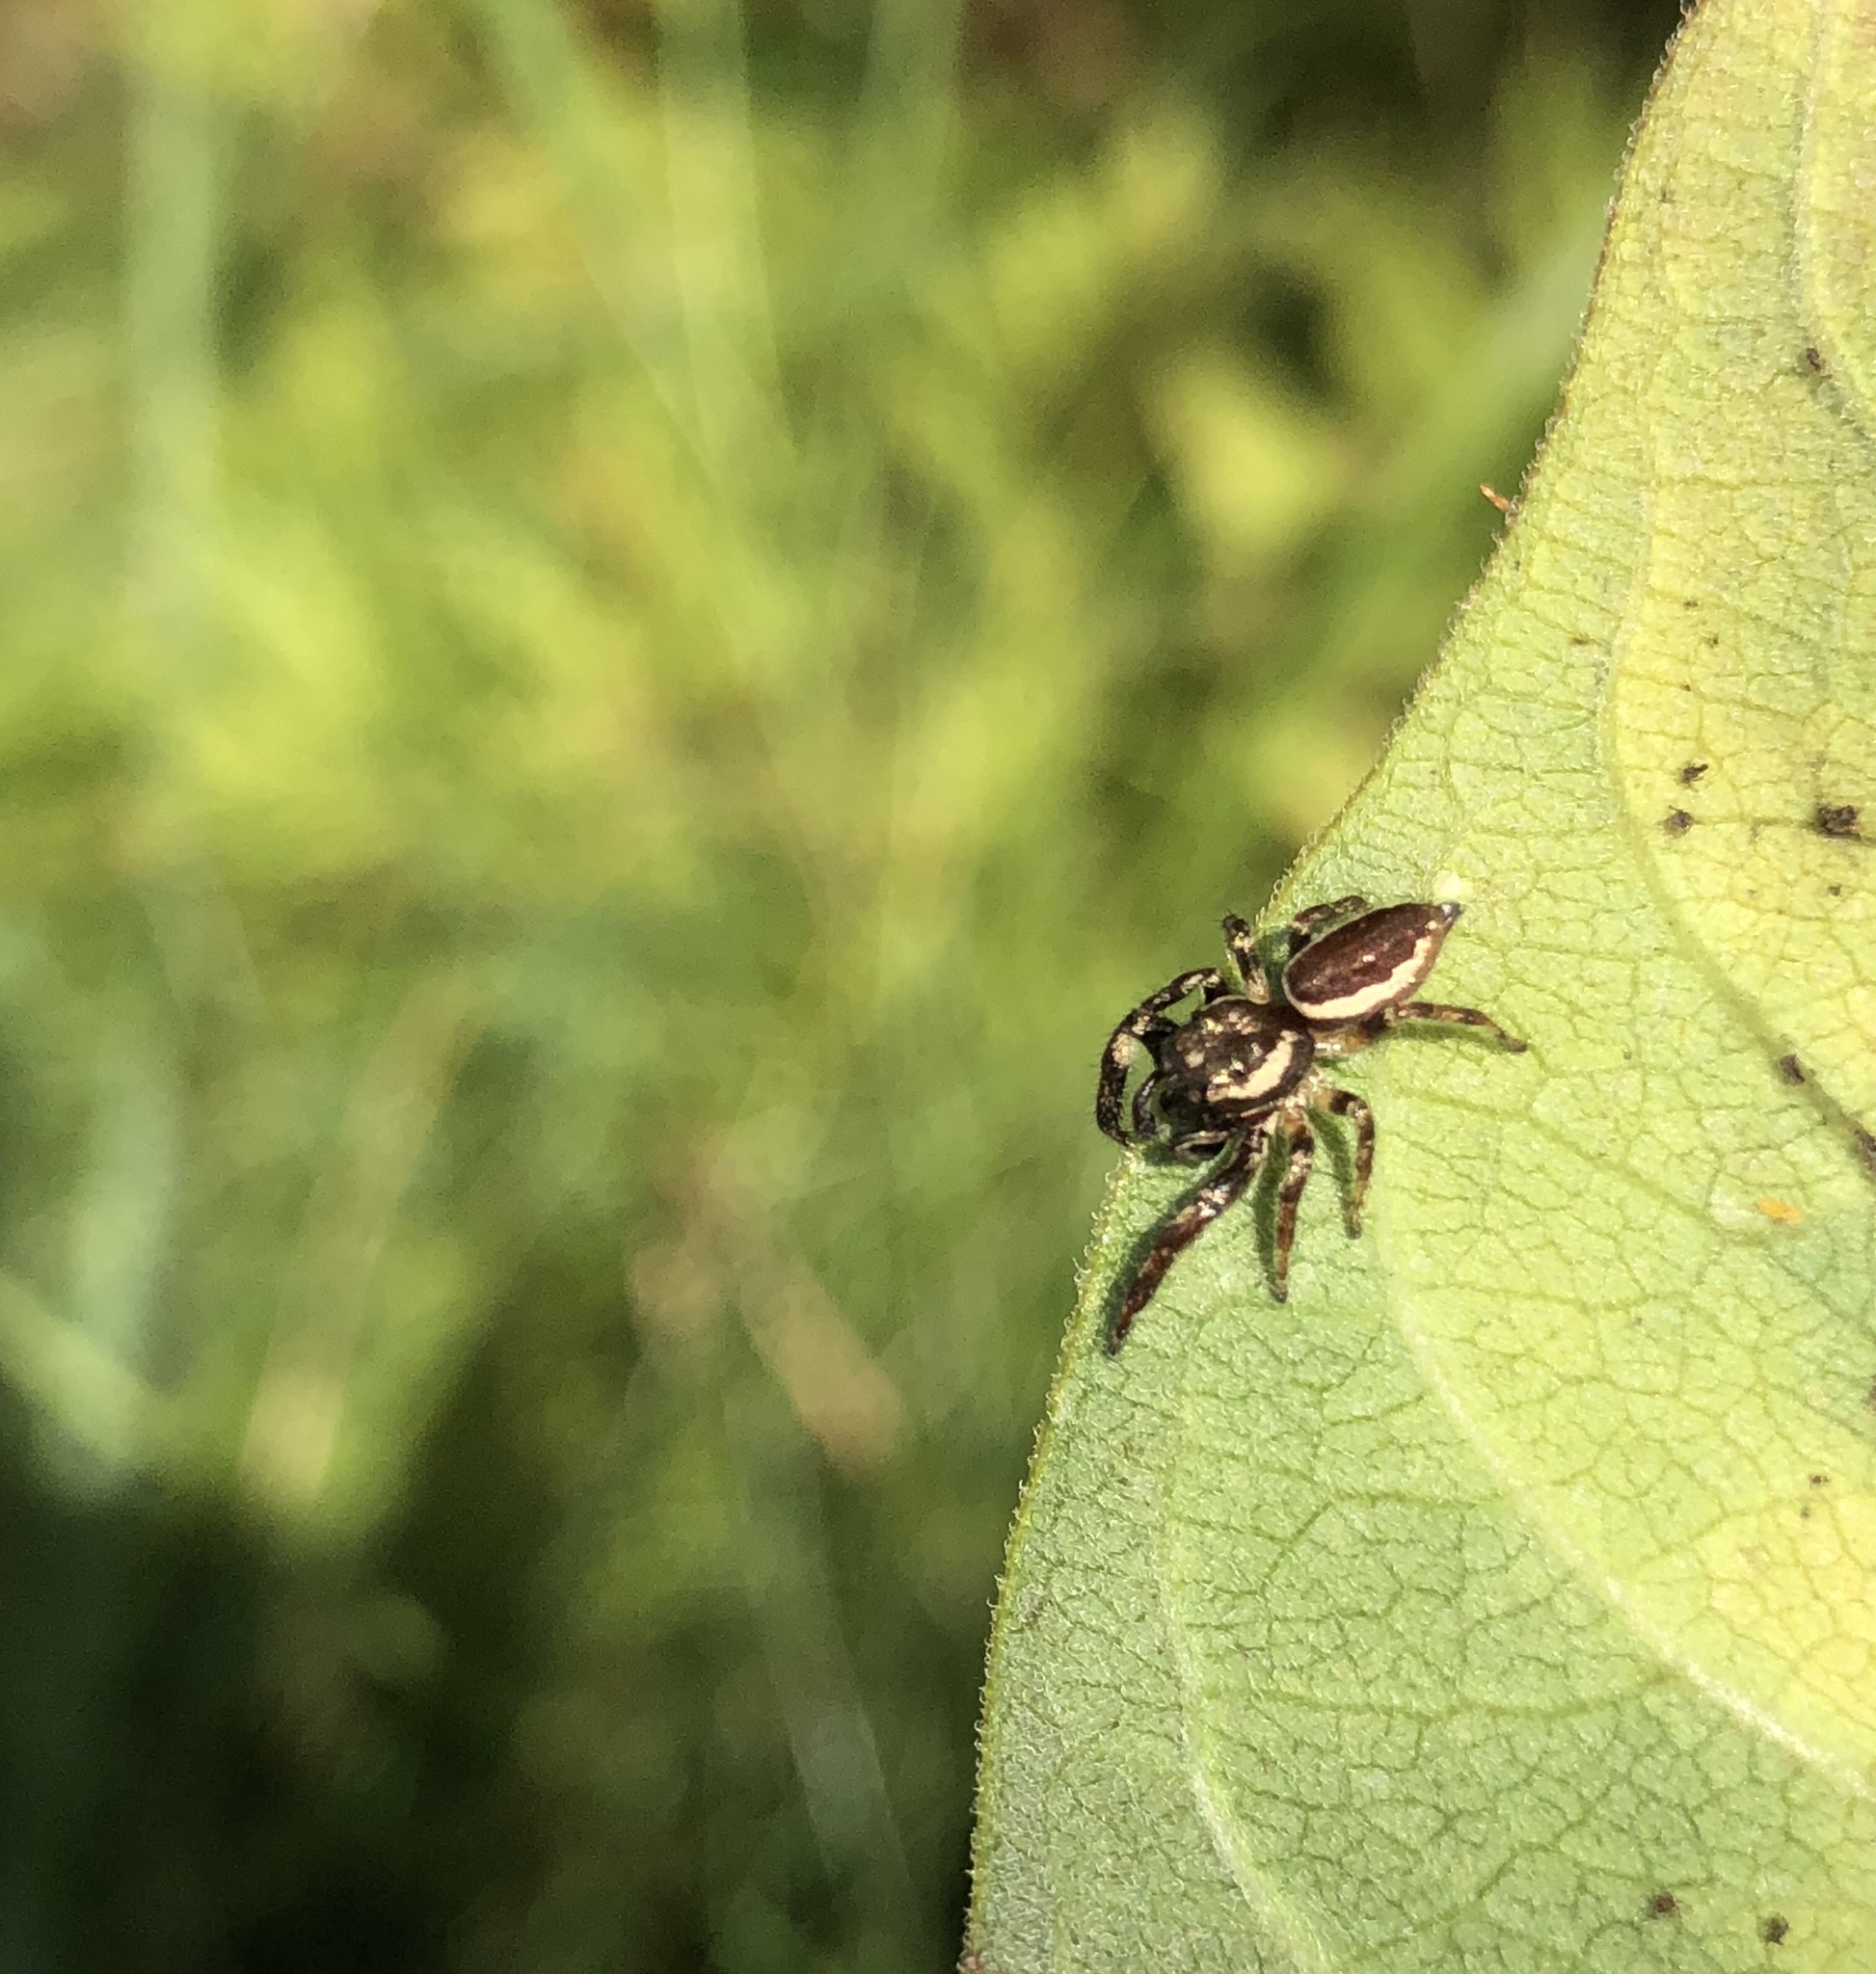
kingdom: Animalia
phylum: Arthropoda
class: Arachnida
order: Araneae
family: Salticidae
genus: Eris
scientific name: Eris militaris
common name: Bronze jumper
